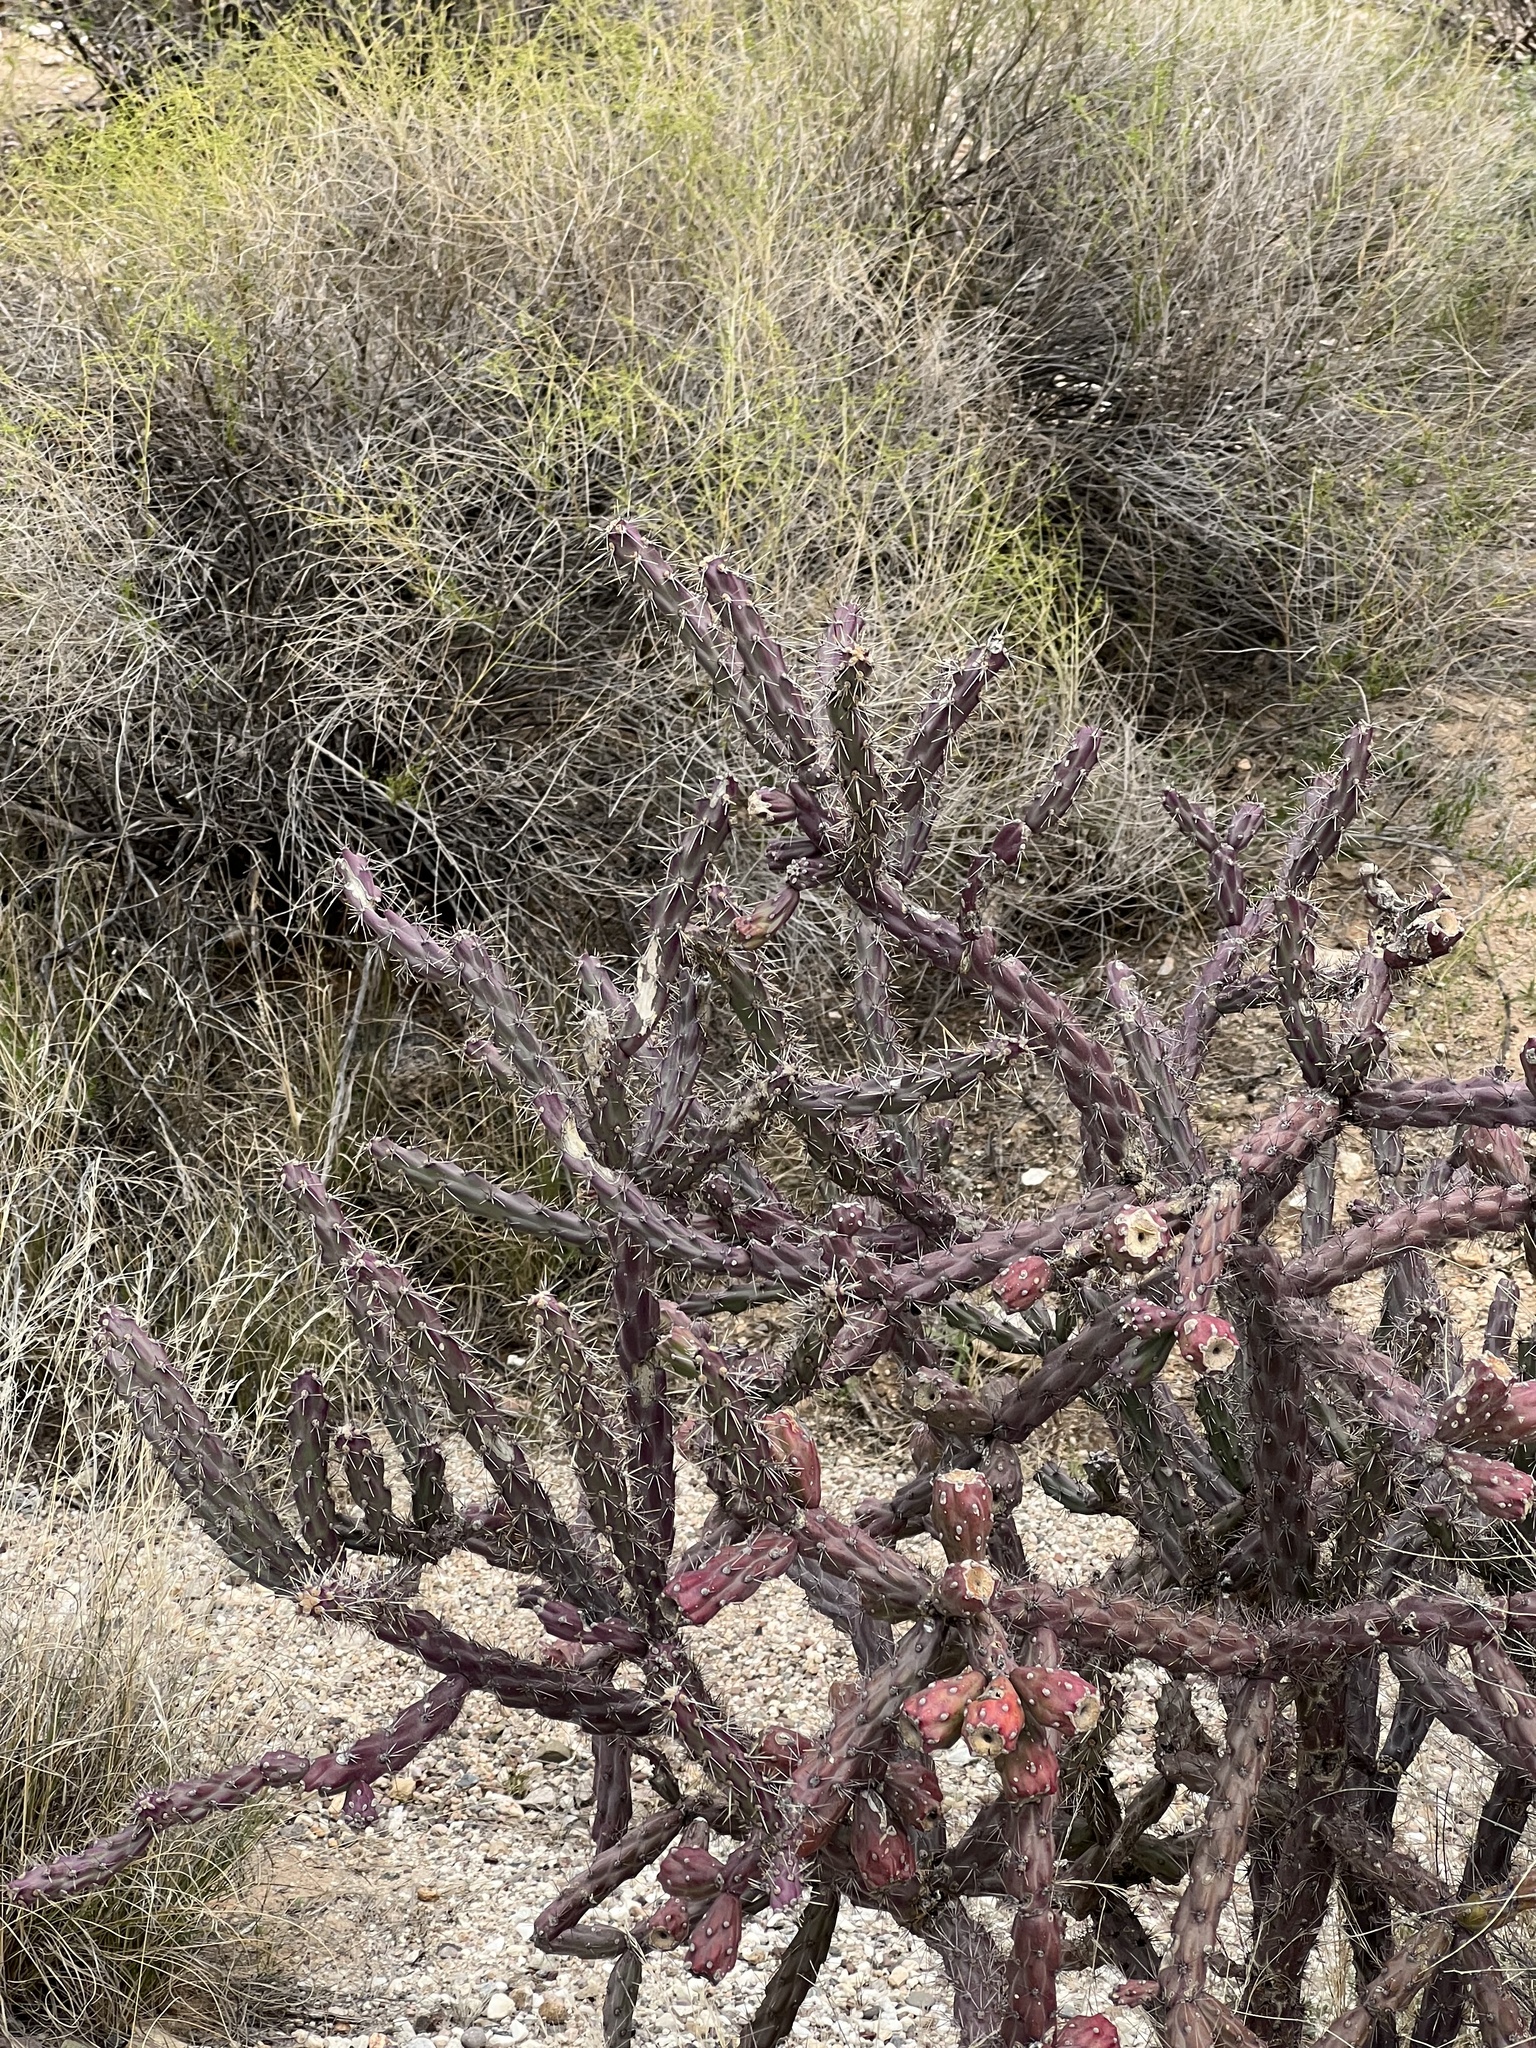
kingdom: Plantae
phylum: Tracheophyta
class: Magnoliopsida
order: Caryophyllales
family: Cactaceae
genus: Cylindropuntia
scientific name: Cylindropuntia thurberi
